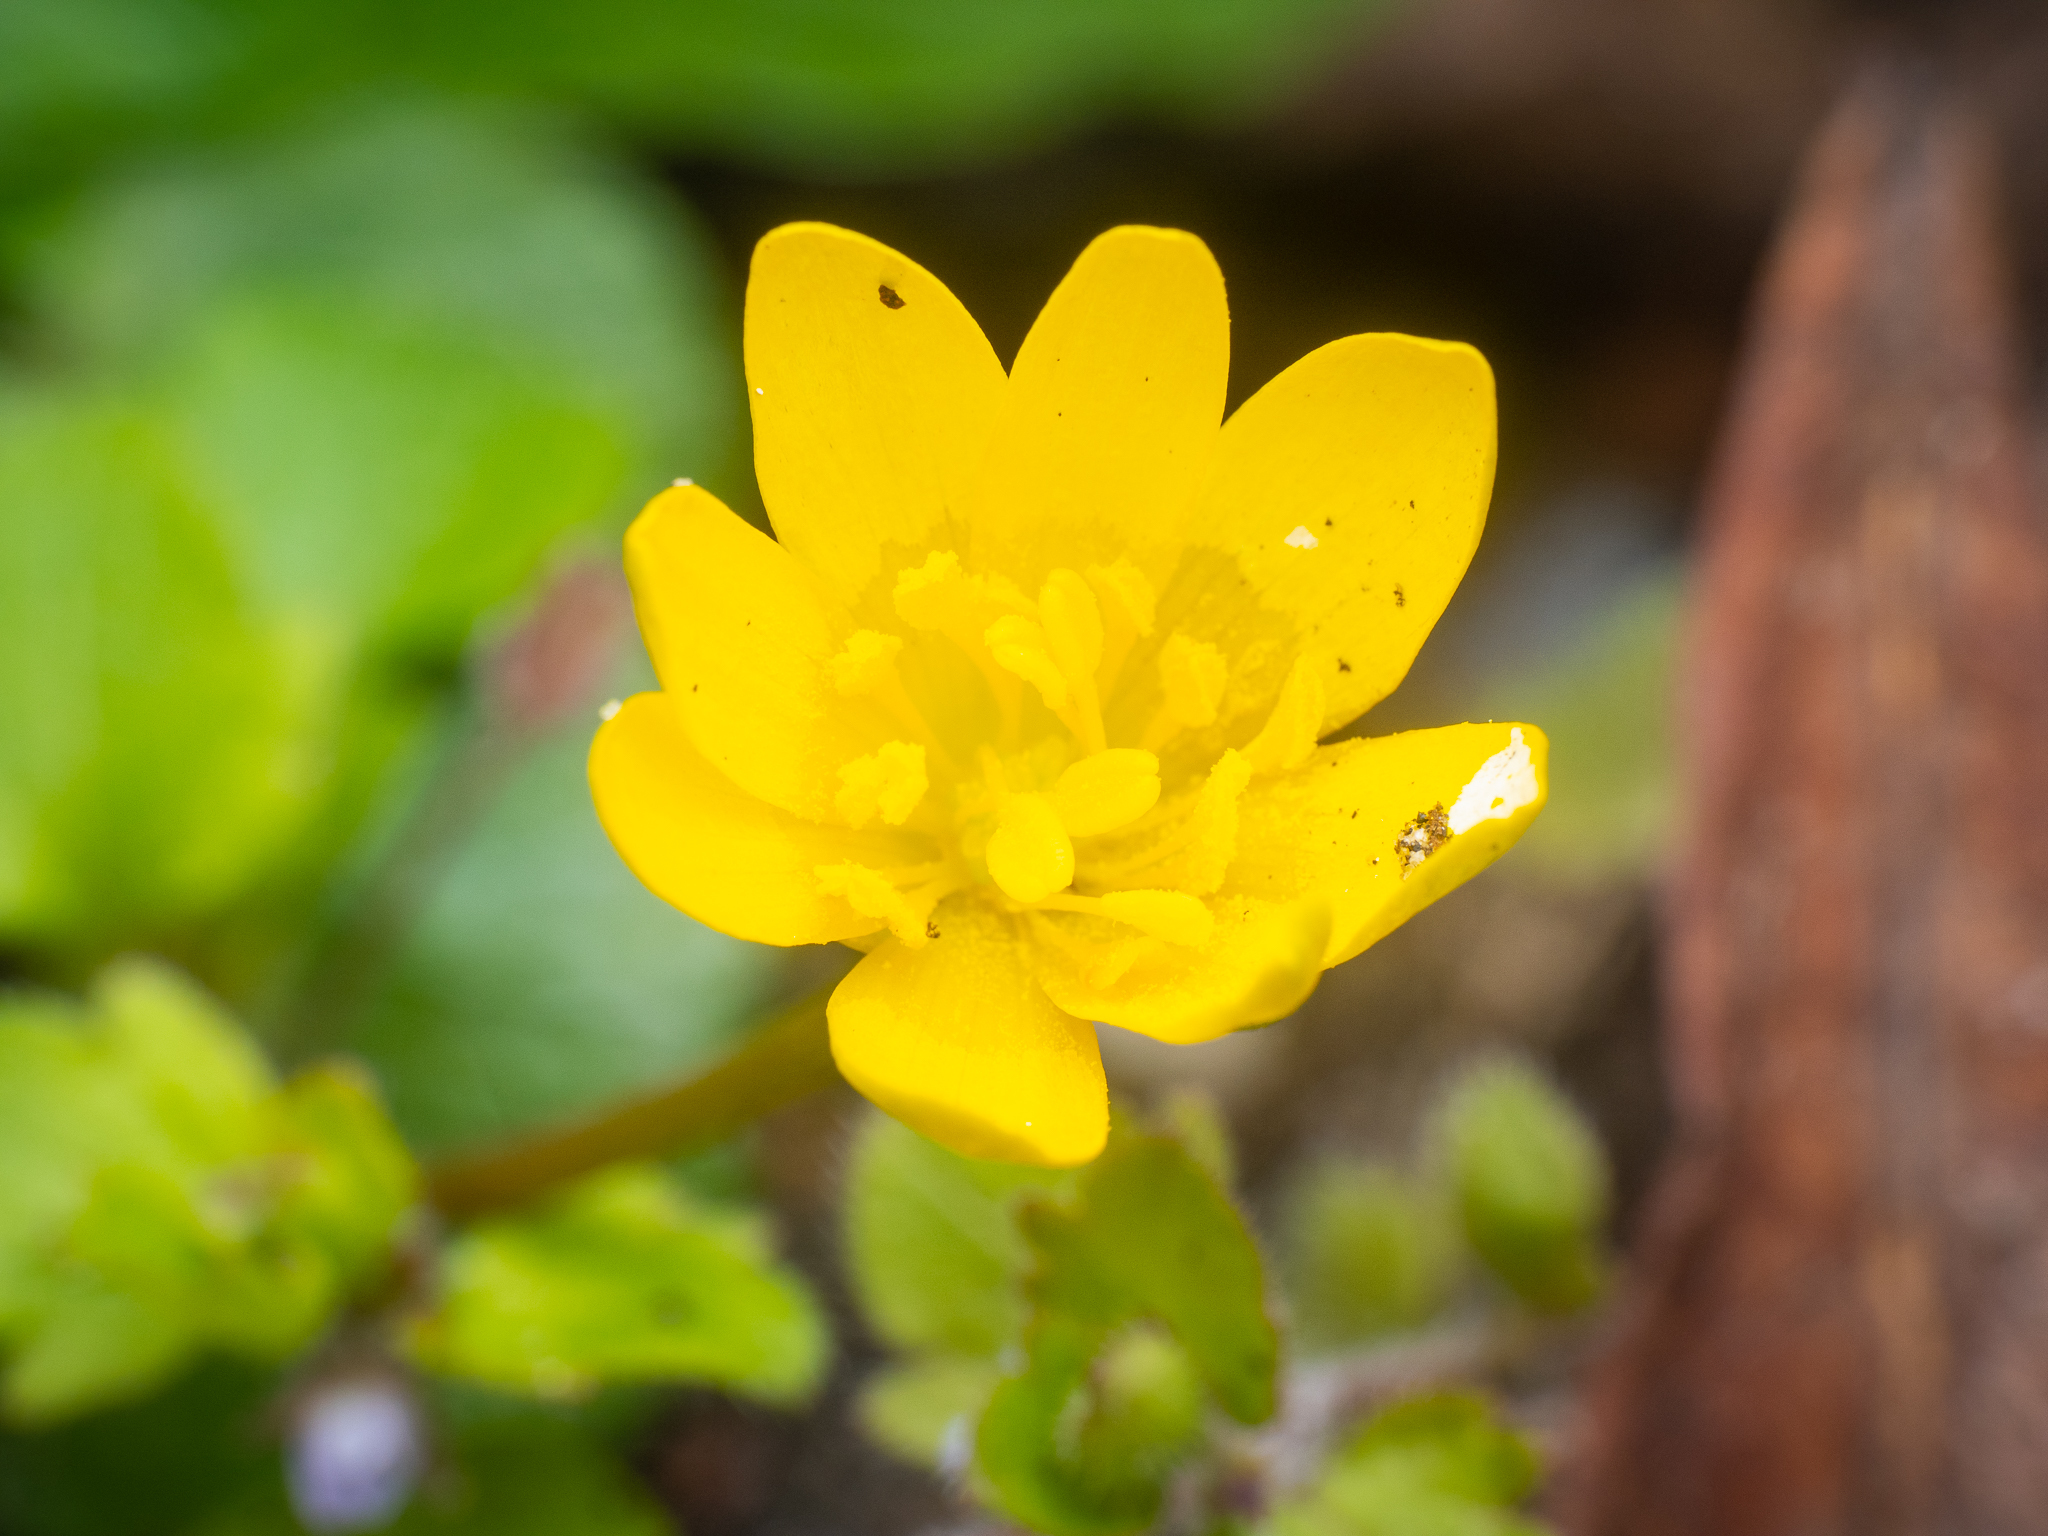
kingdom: Plantae
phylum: Tracheophyta
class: Magnoliopsida
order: Ranunculales
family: Ranunculaceae
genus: Ficaria
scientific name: Ficaria verna
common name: Lesser celandine
